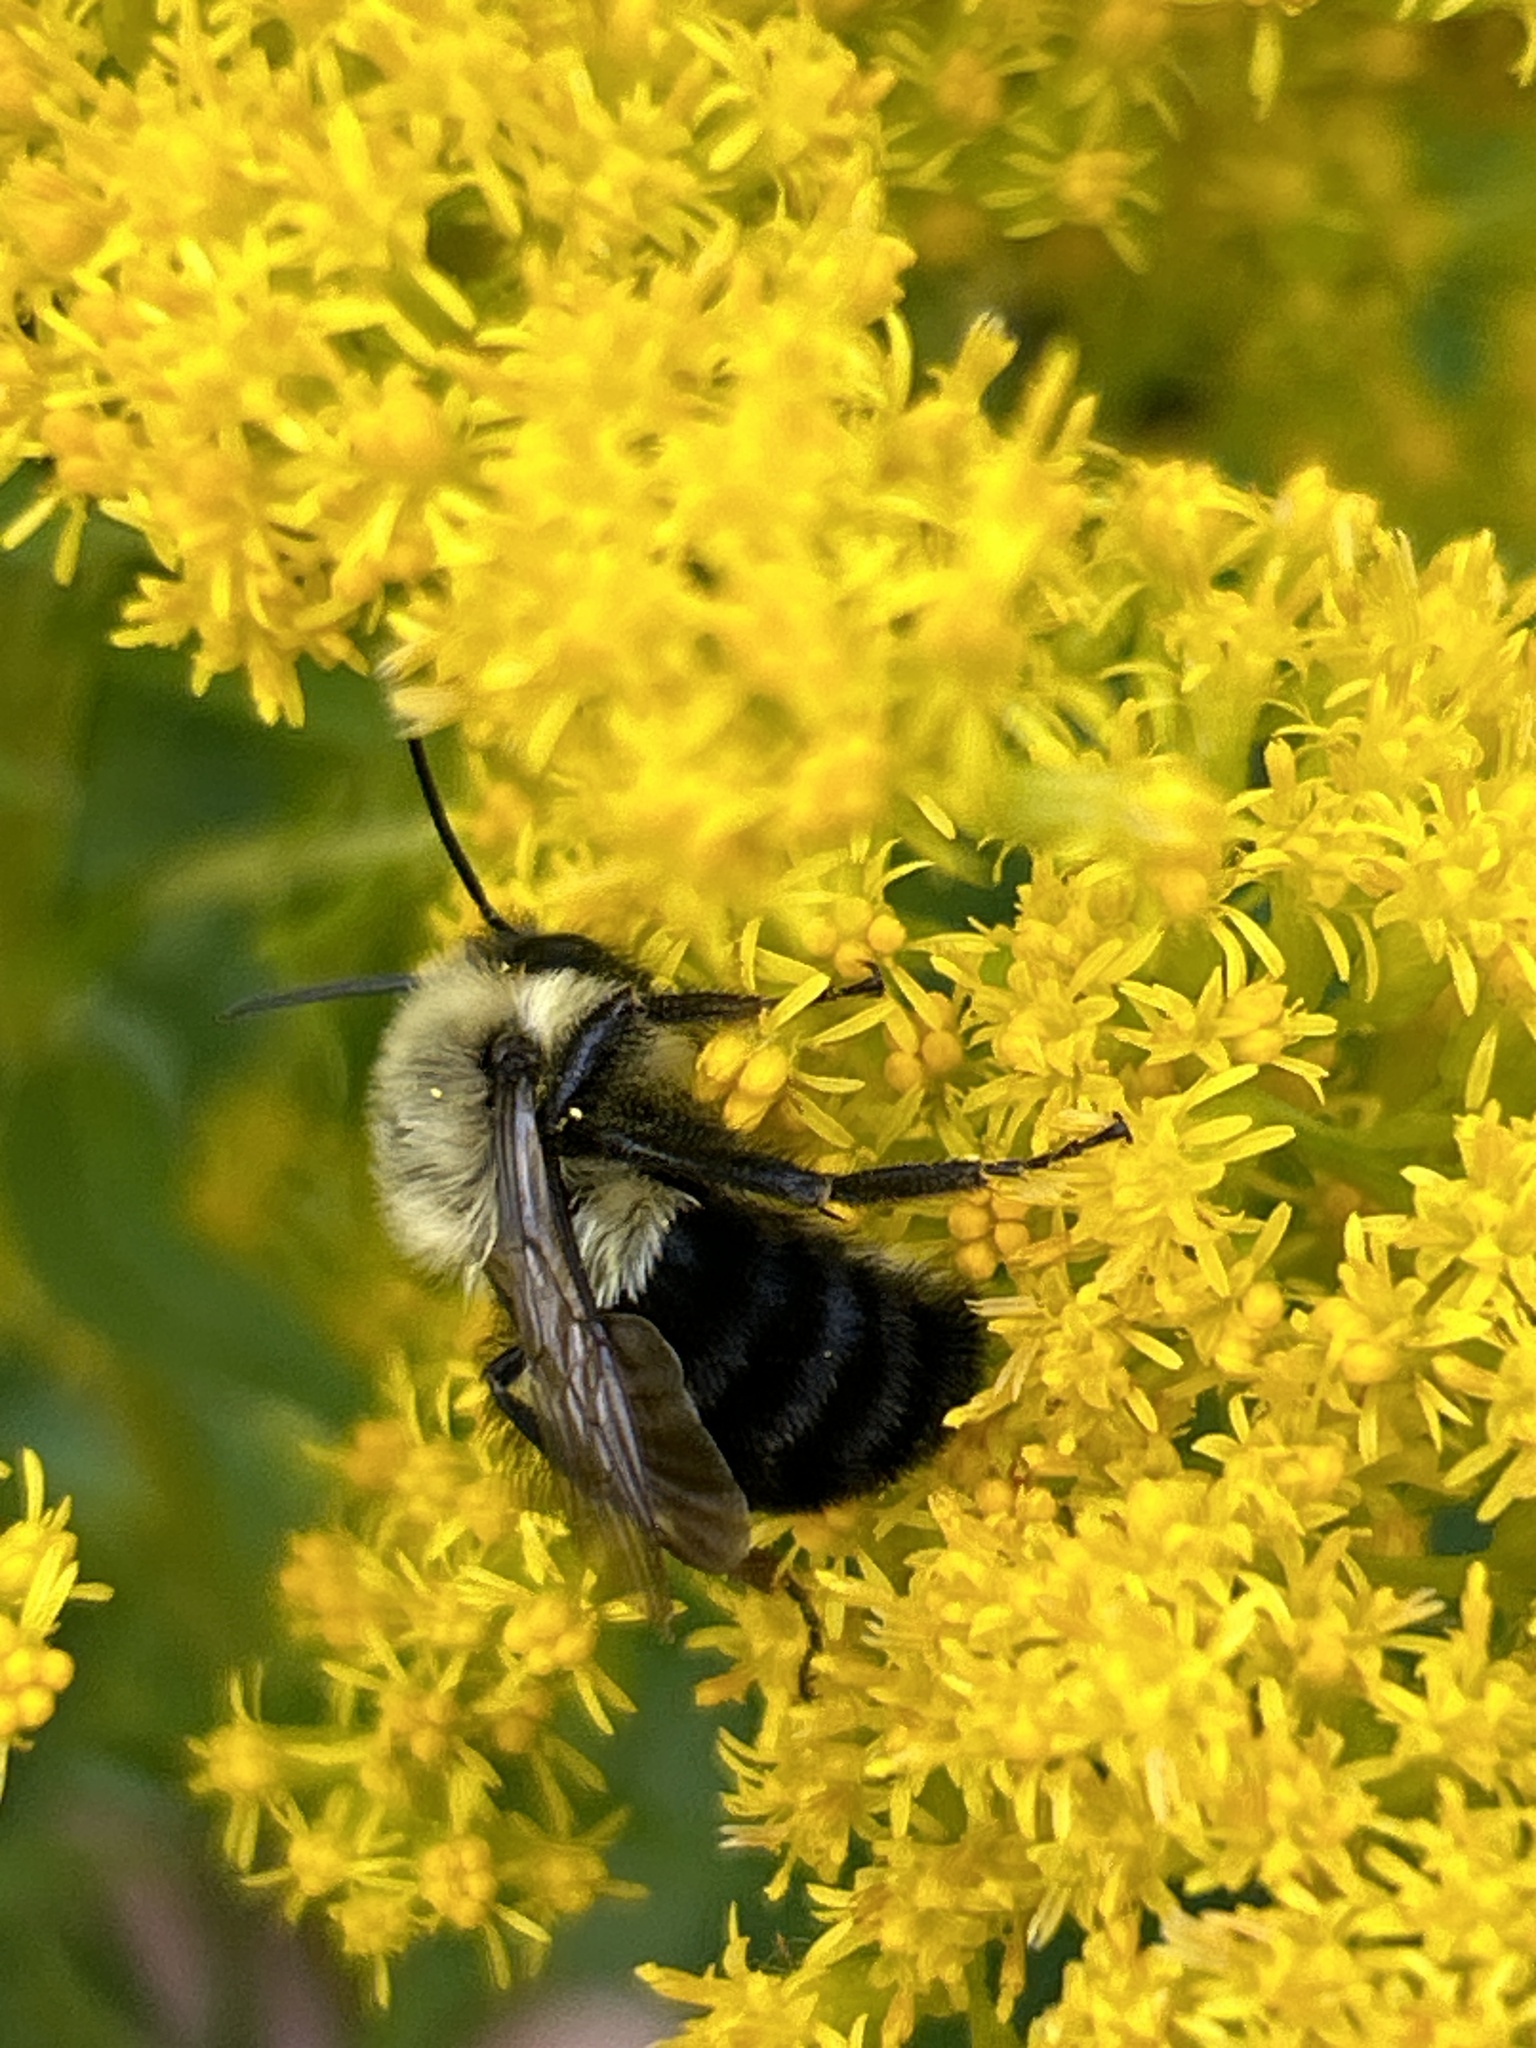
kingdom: Animalia
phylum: Arthropoda
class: Insecta
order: Hymenoptera
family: Apidae
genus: Bombus
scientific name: Bombus impatiens
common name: Common eastern bumble bee
